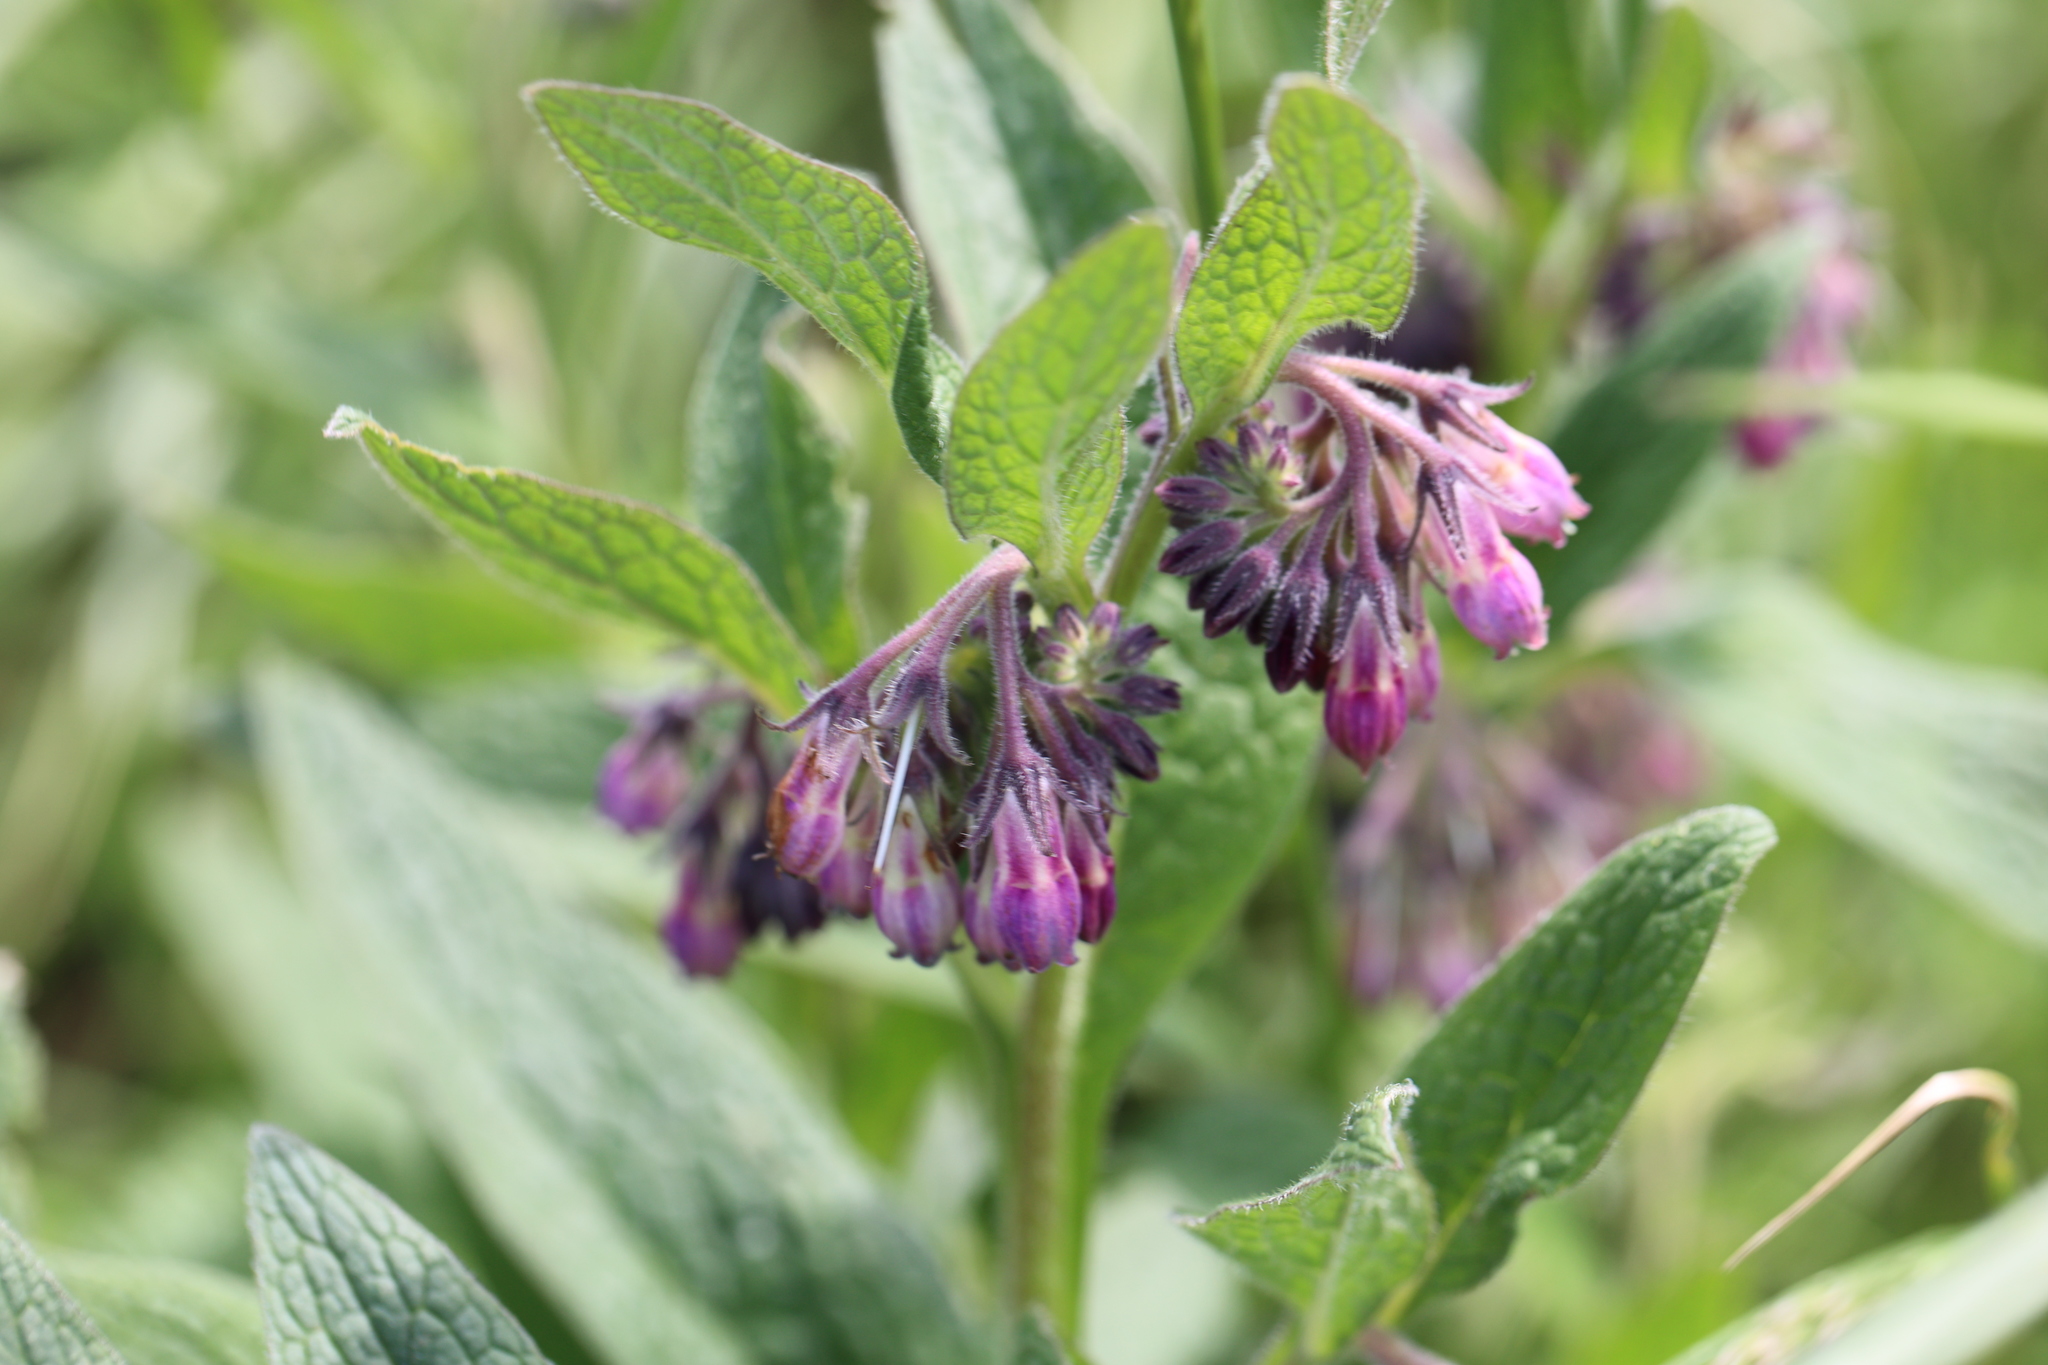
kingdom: Plantae
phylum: Tracheophyta
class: Magnoliopsida
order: Boraginales
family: Boraginaceae
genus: Symphytum
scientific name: Symphytum officinale
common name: Common comfrey
